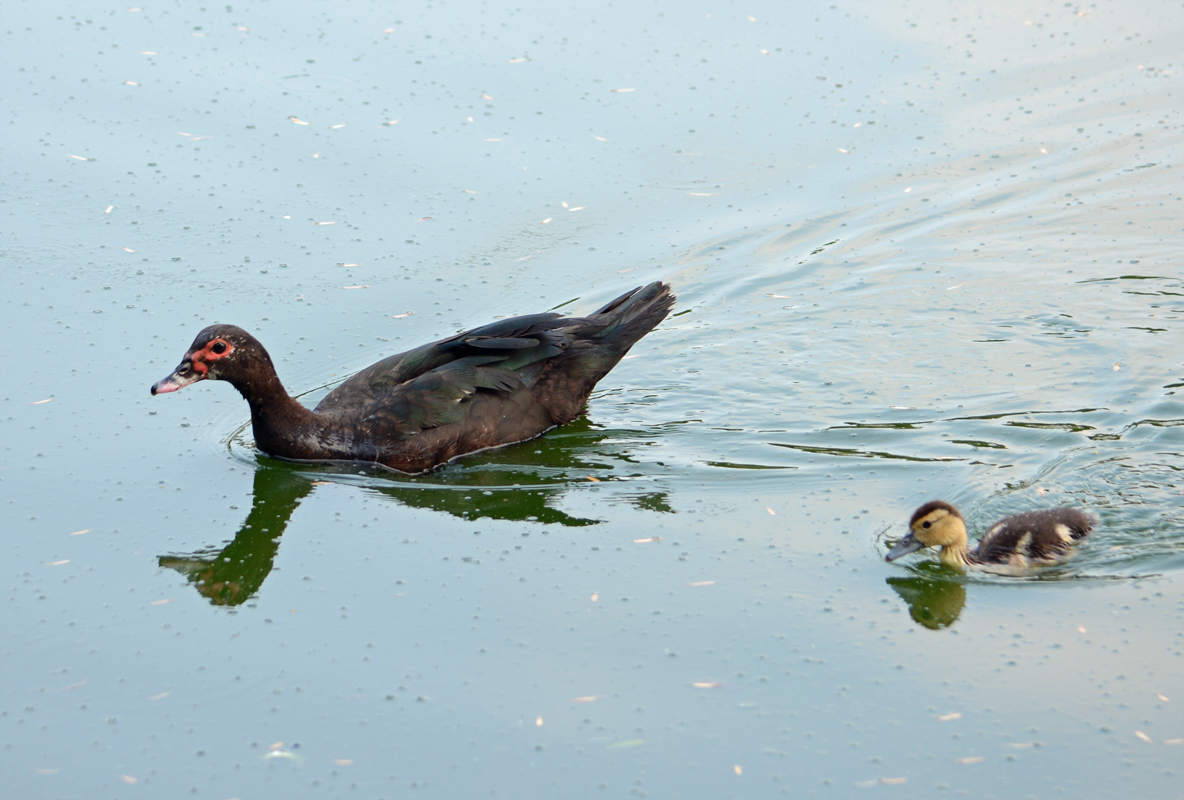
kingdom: Animalia
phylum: Chordata
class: Aves
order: Anseriformes
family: Anatidae
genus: Cairina
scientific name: Cairina moschata
